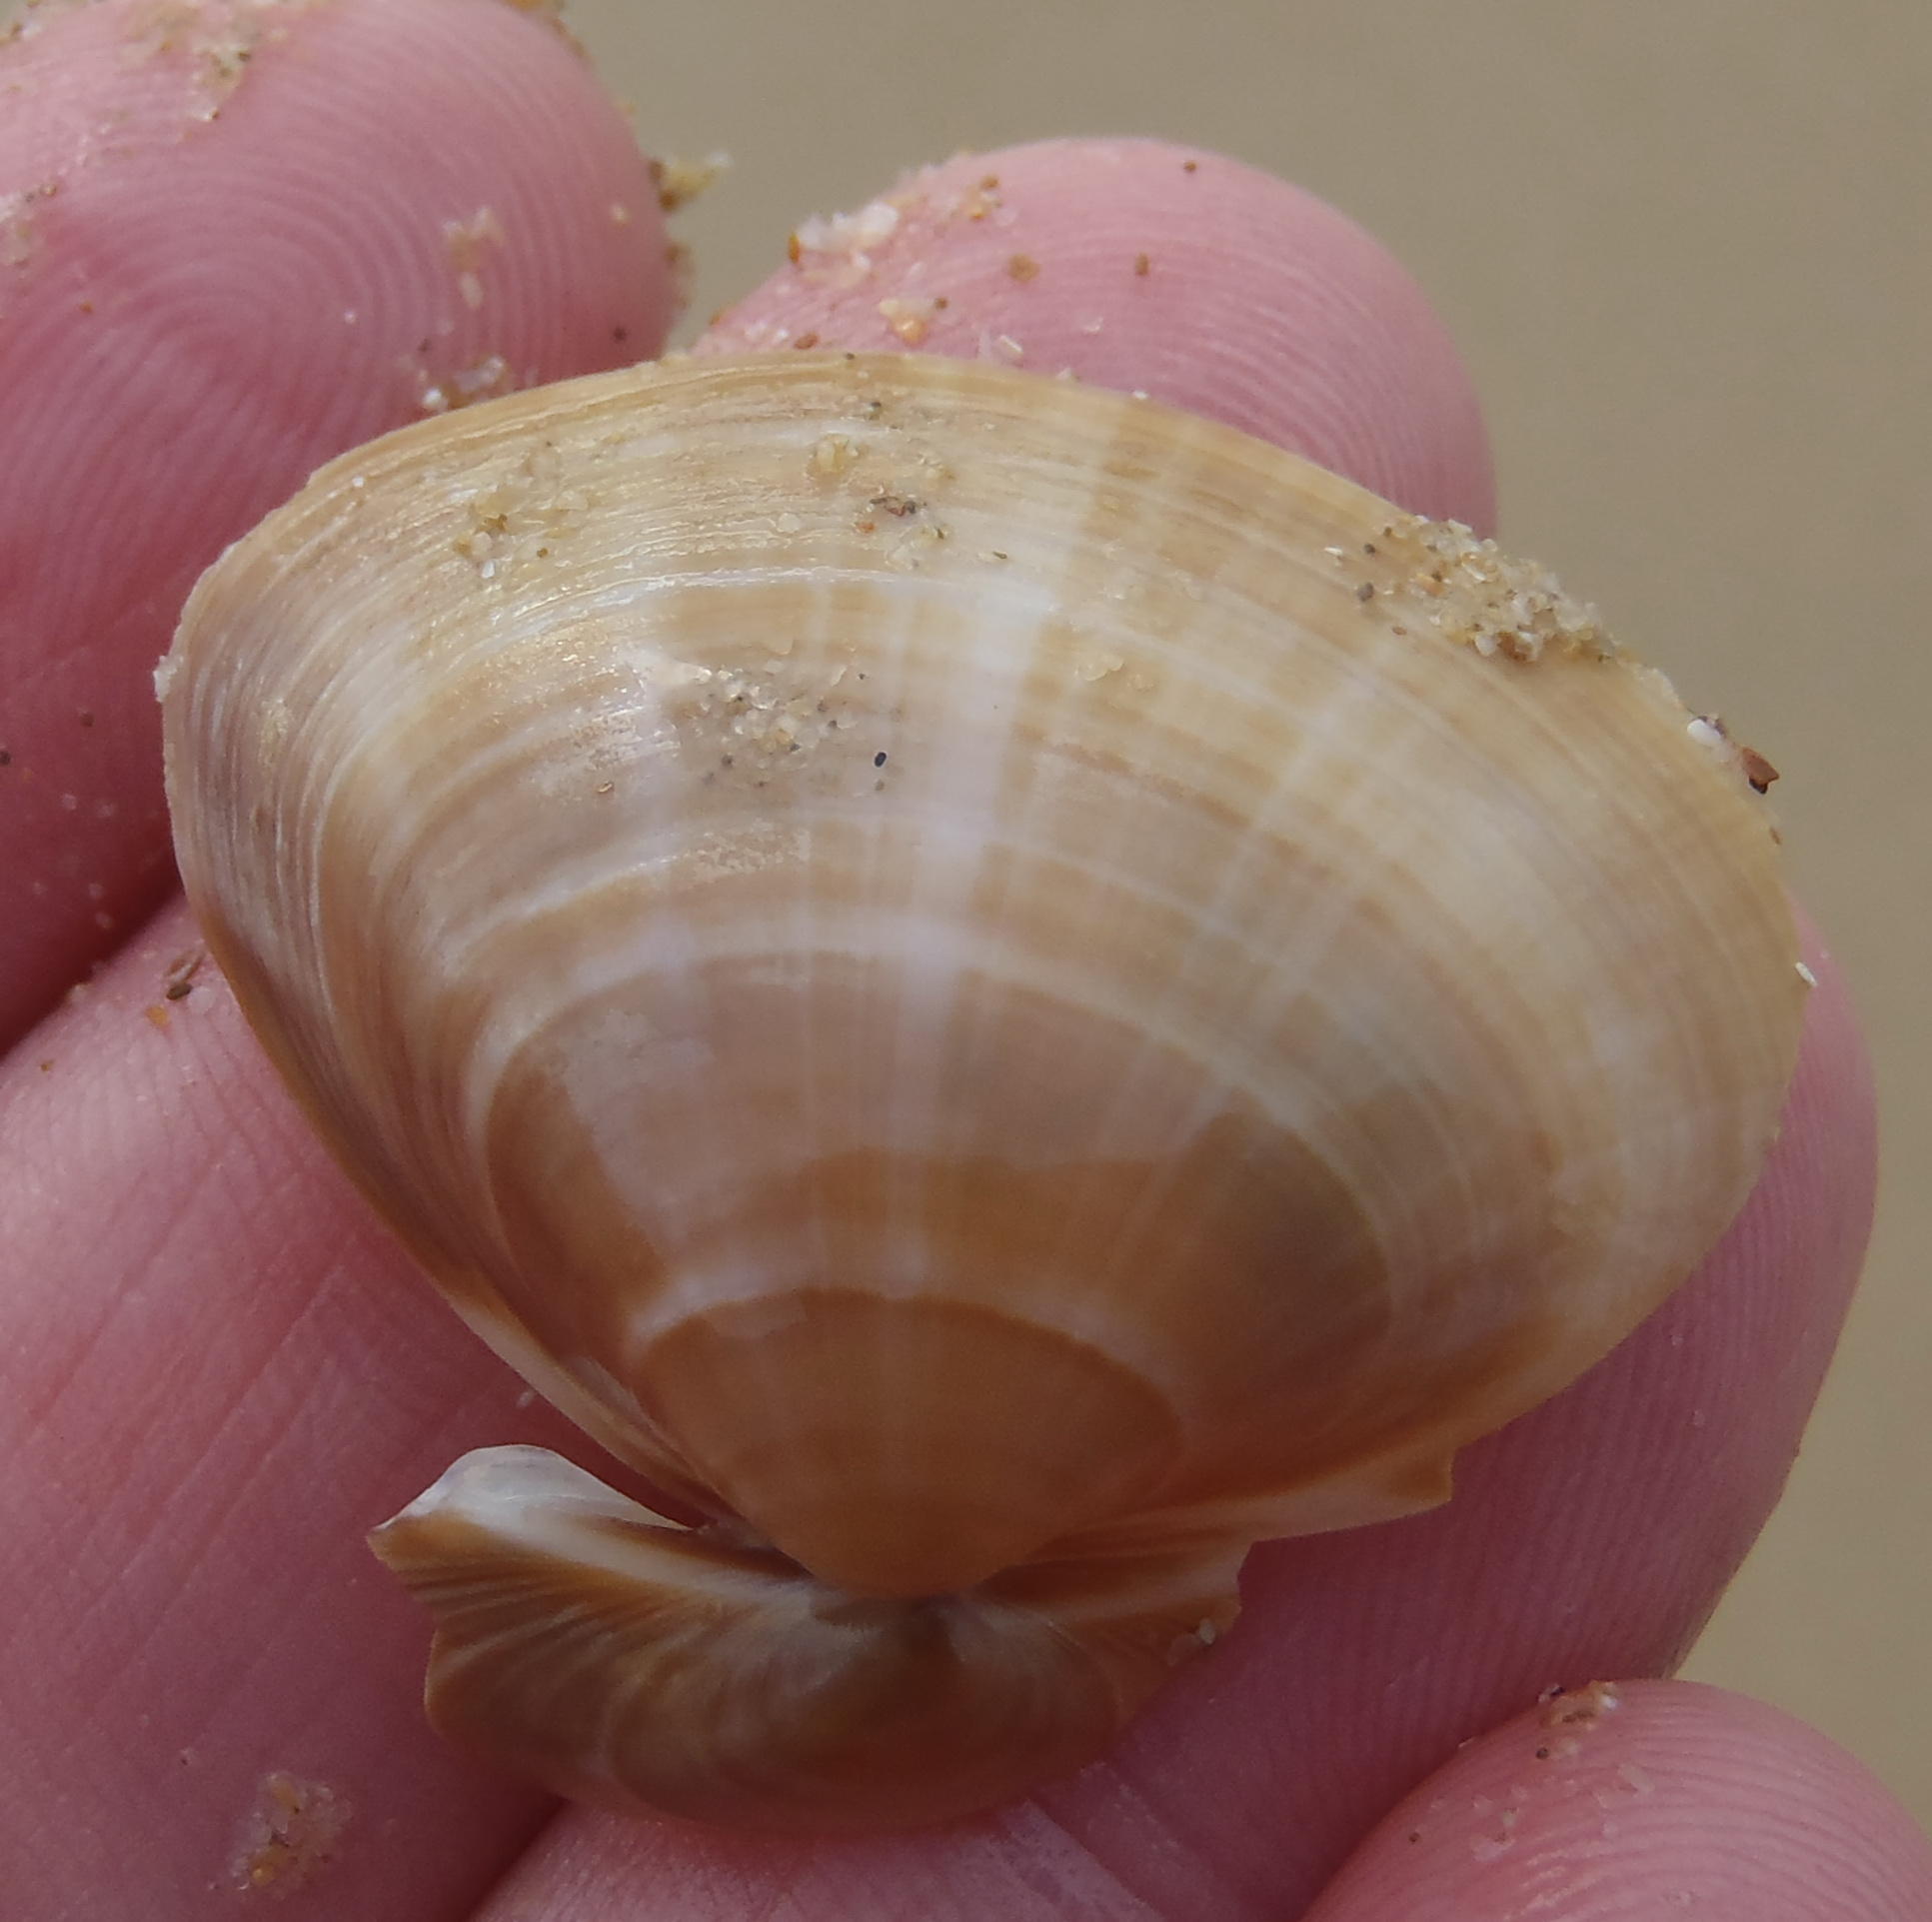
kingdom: Animalia
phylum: Mollusca
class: Bivalvia
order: Venerida
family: Mactridae
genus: Mactra
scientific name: Mactra glabrata
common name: Smooth mactra
